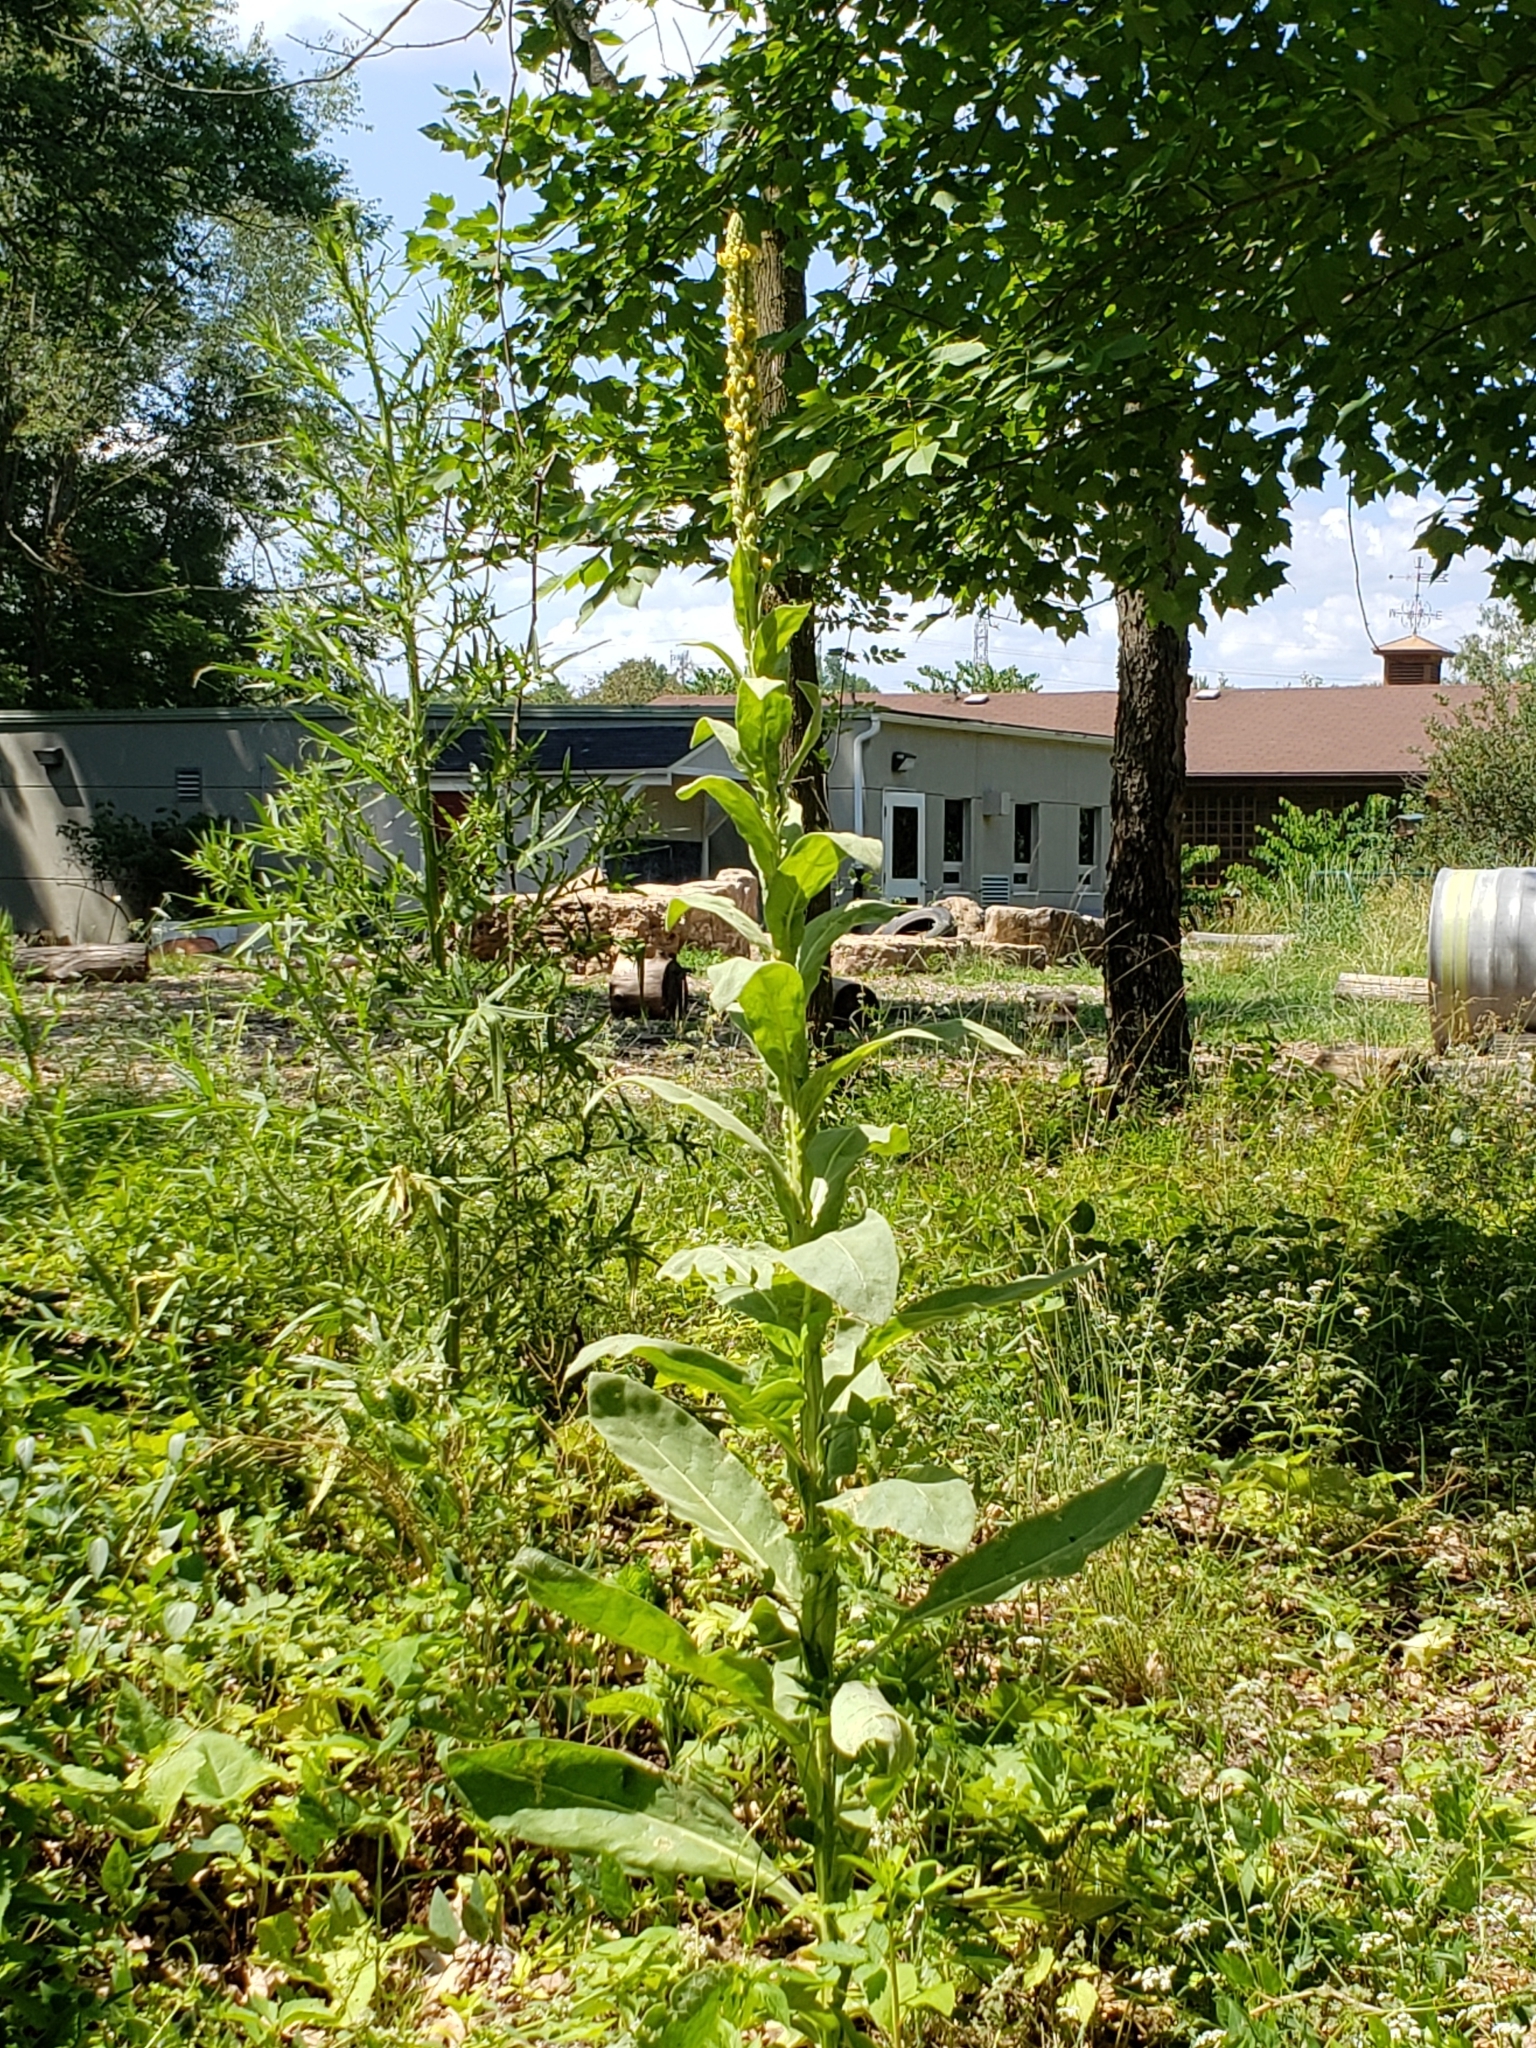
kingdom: Plantae
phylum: Tracheophyta
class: Magnoliopsida
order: Lamiales
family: Scrophulariaceae
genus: Verbascum
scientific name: Verbascum thapsus
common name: Common mullein
